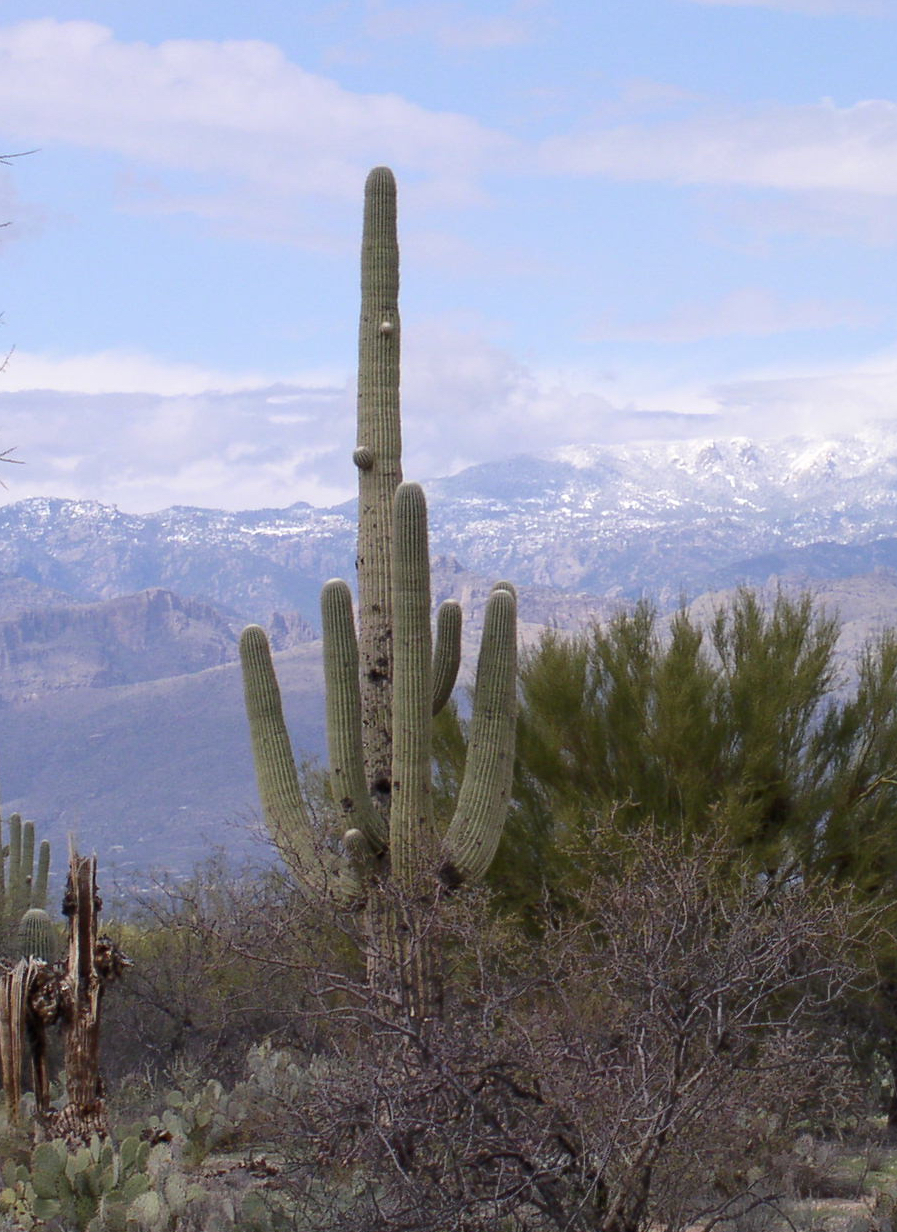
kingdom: Plantae
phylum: Tracheophyta
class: Magnoliopsida
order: Caryophyllales
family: Cactaceae
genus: Carnegiea
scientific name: Carnegiea gigantea
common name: Saguaro
